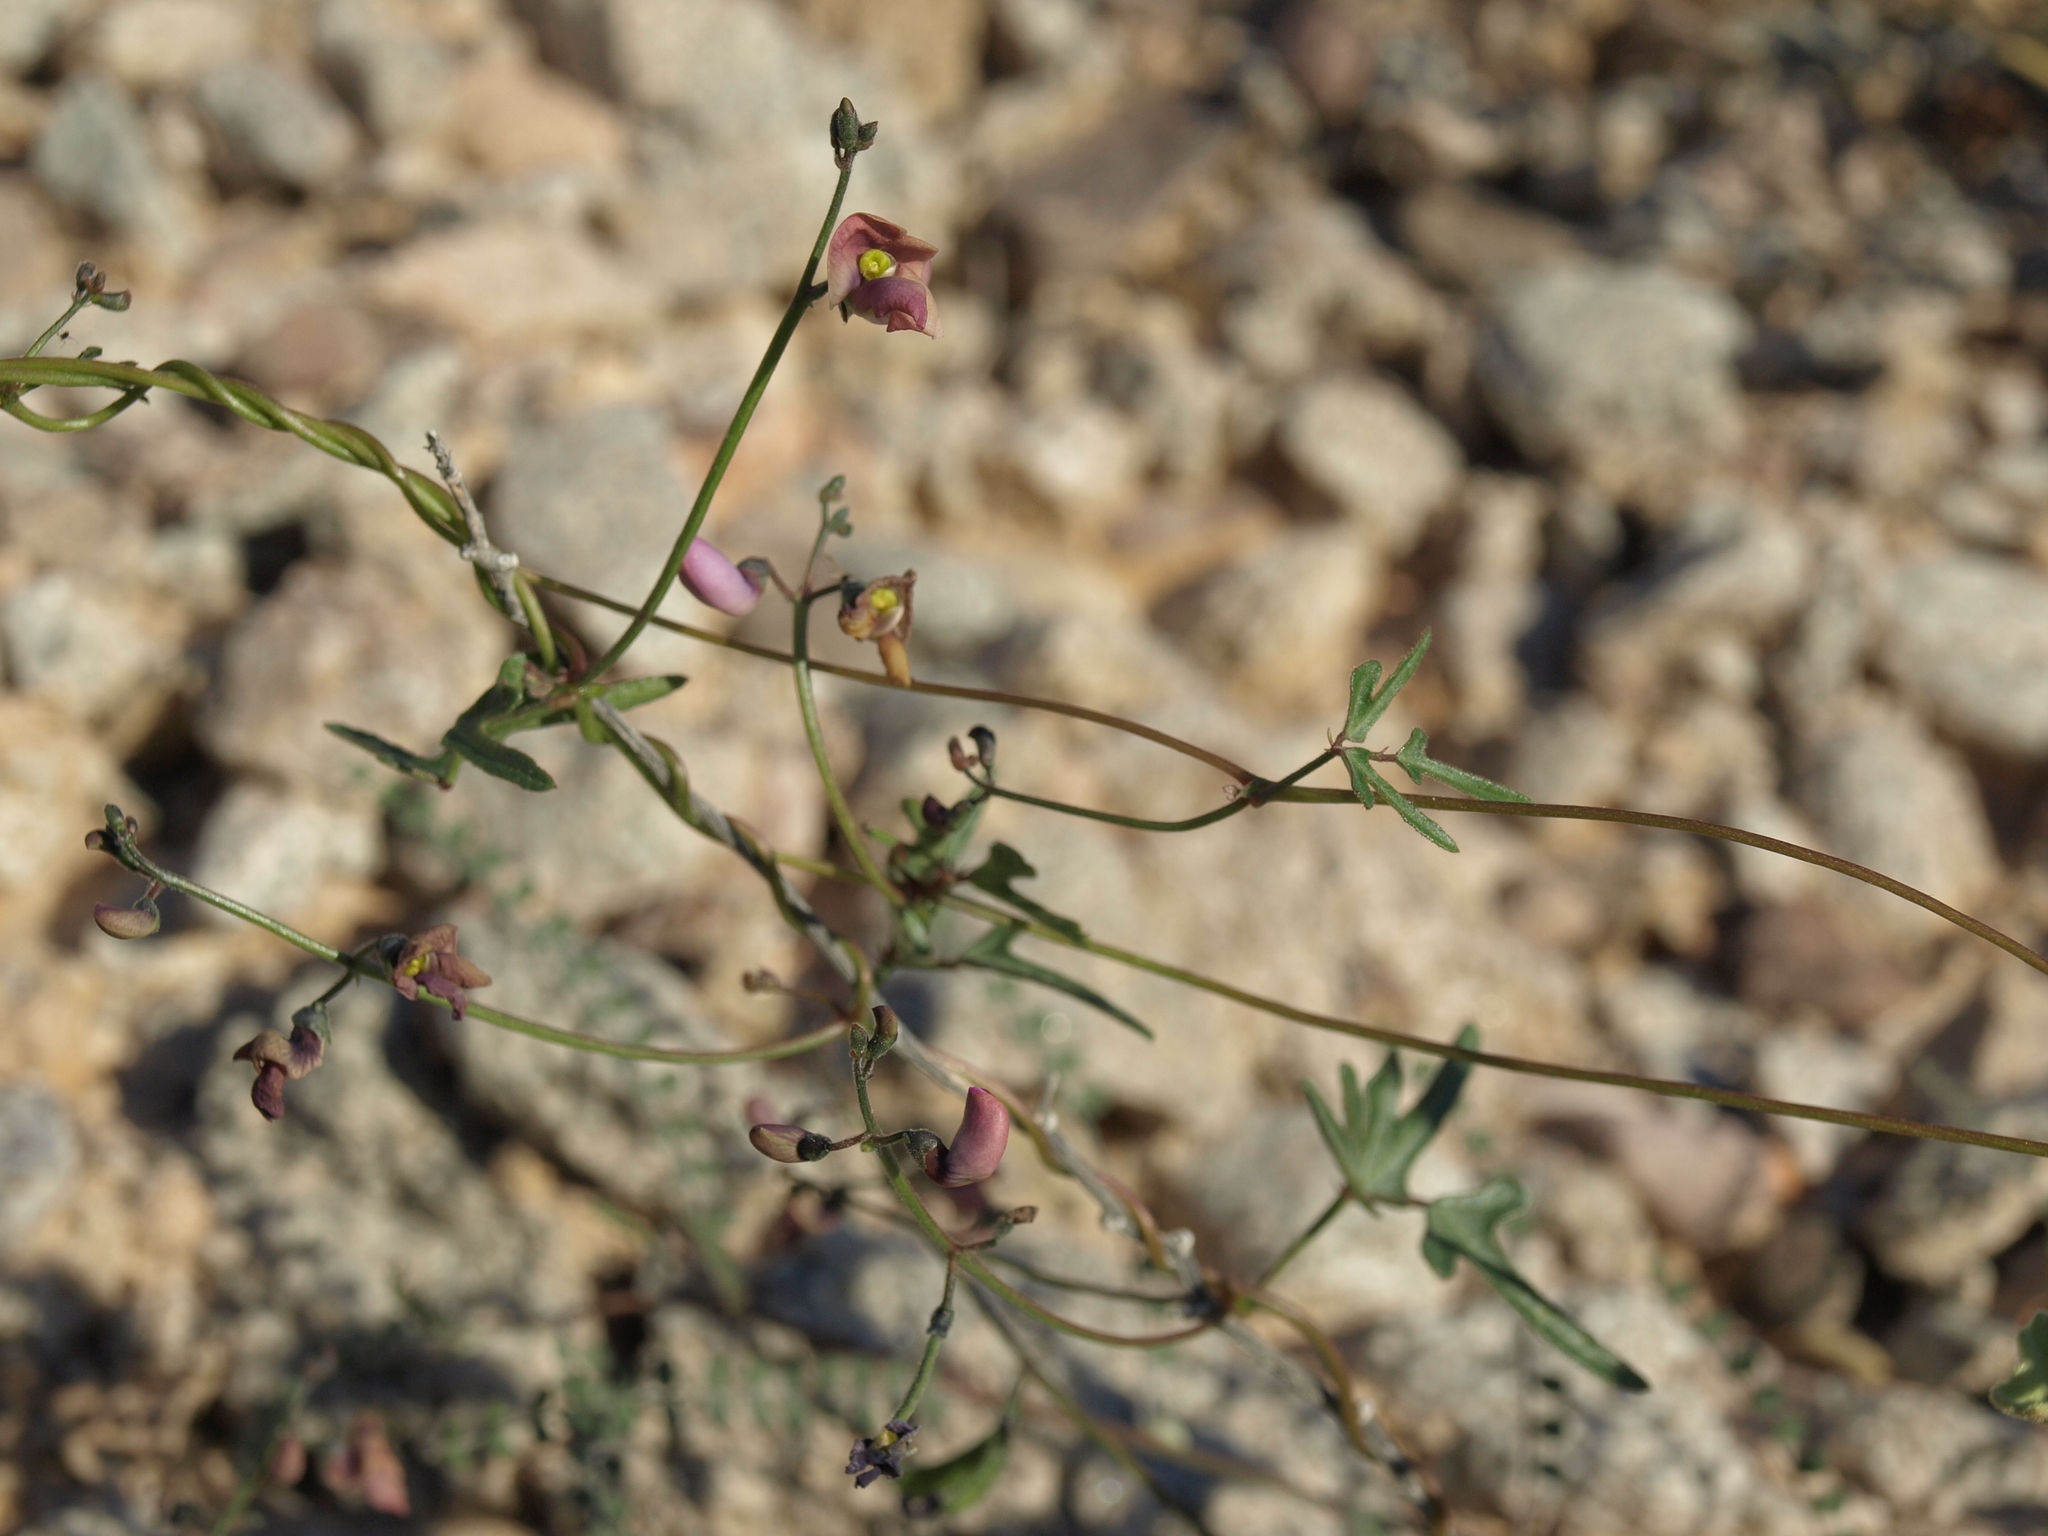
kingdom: Plantae
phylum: Tracheophyta
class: Magnoliopsida
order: Fabales
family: Fabaceae
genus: Phaseolus
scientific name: Phaseolus filiformis
